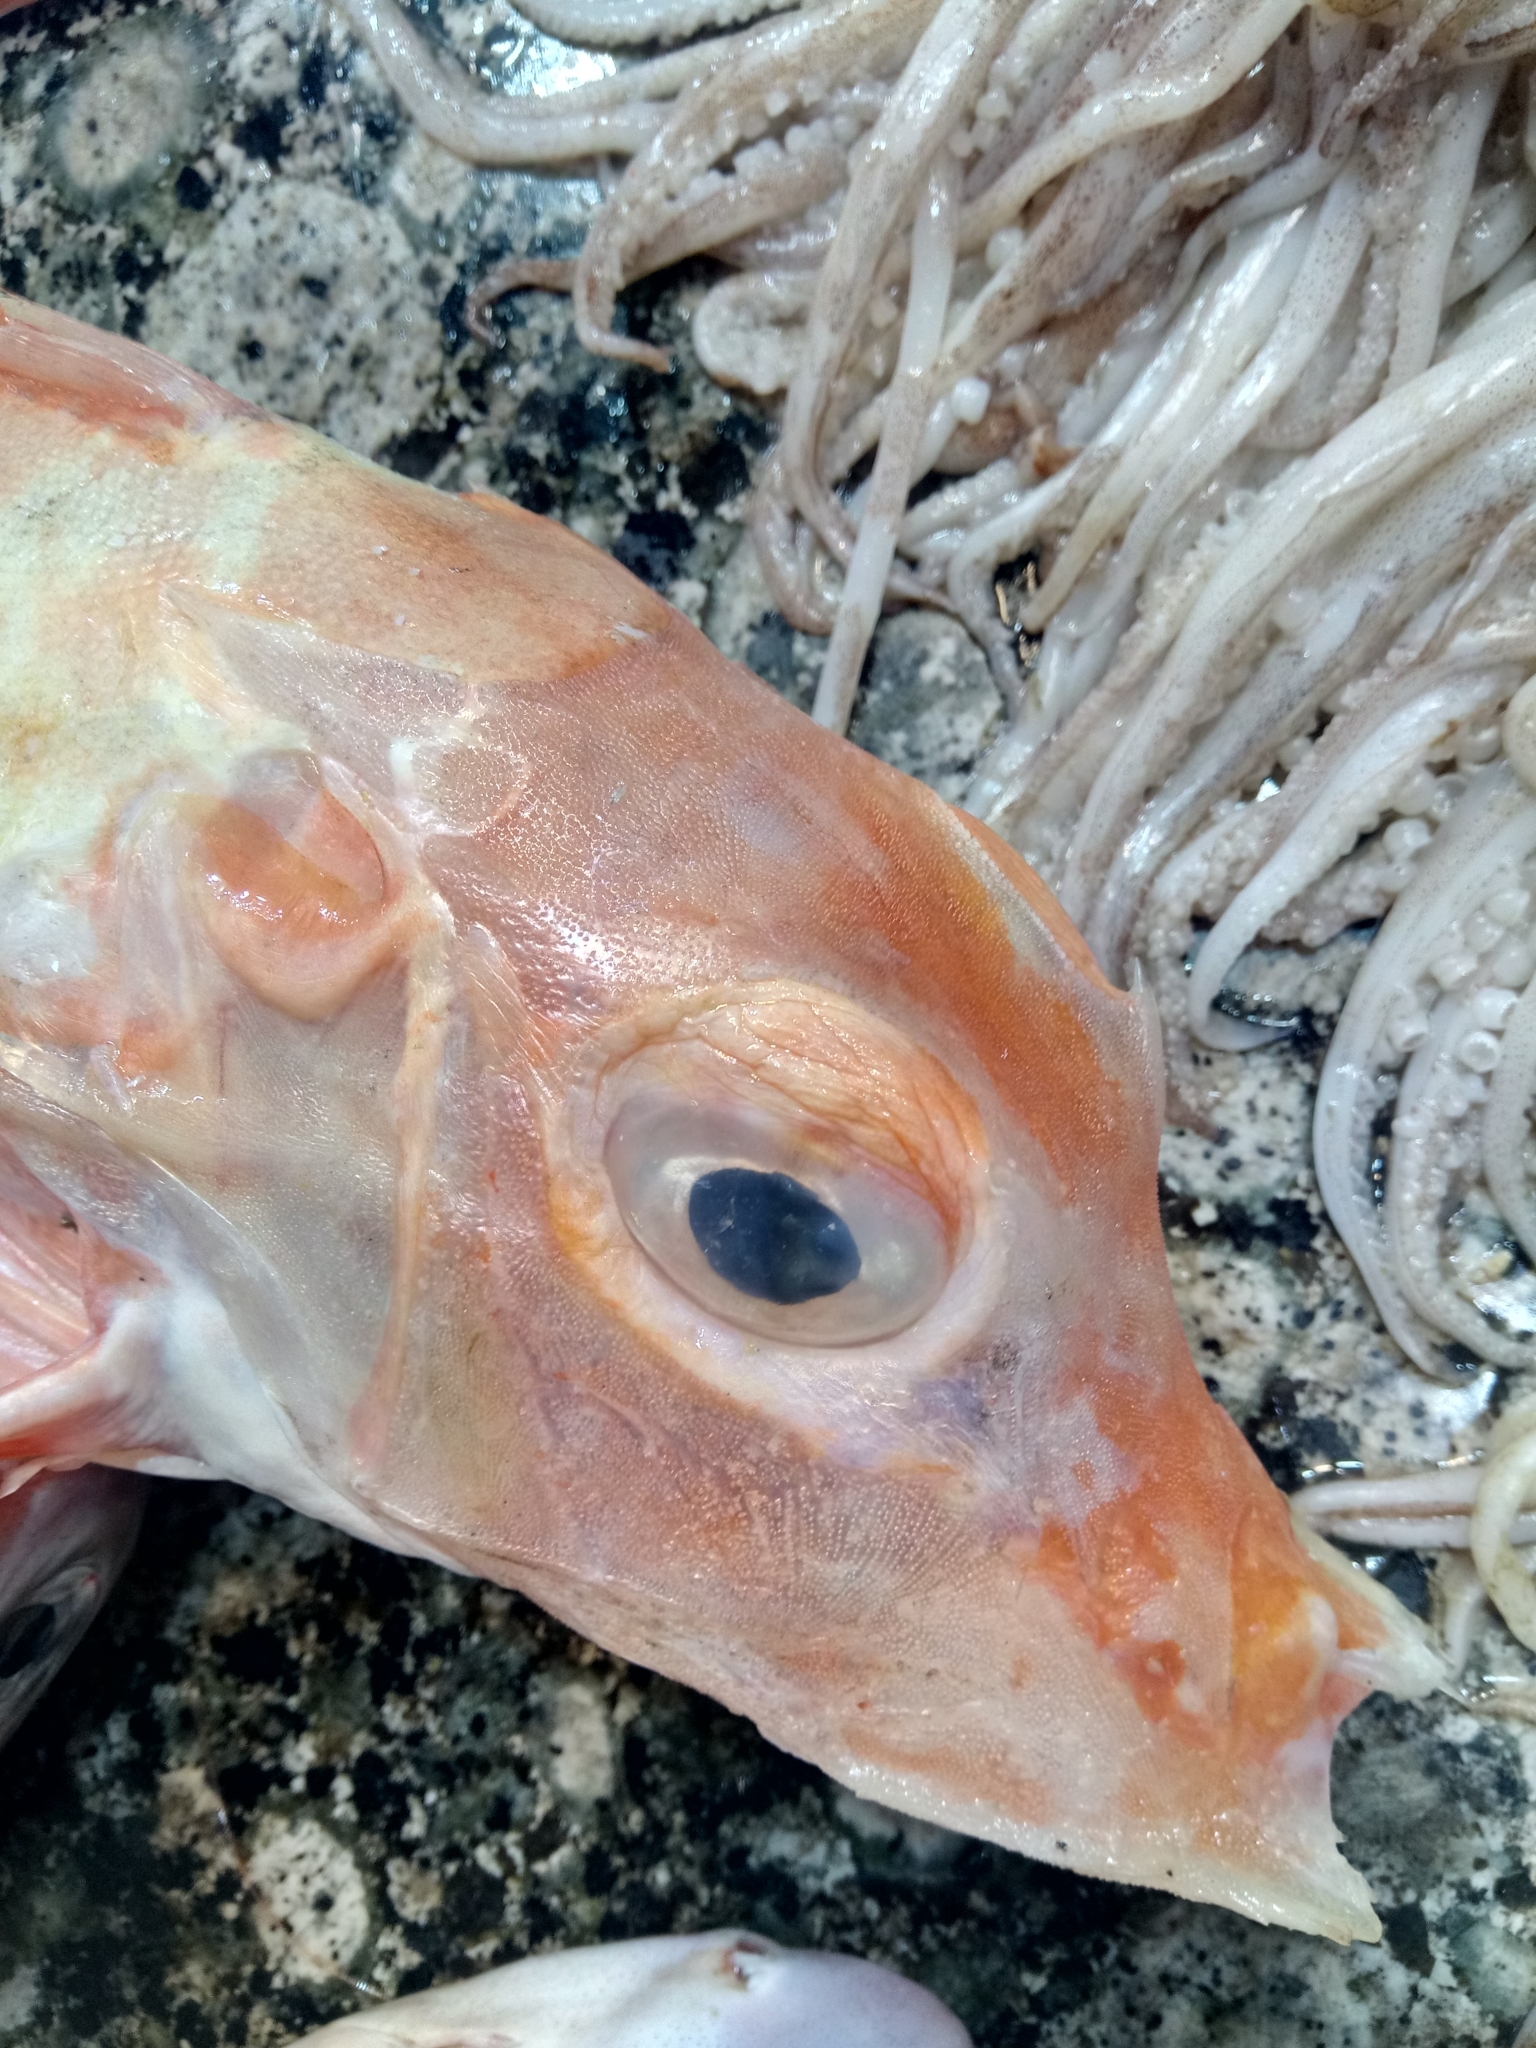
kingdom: Animalia
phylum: Chordata
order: Scorpaeniformes
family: Triglidae
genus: Trigla
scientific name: Trigla lyra
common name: Piper
